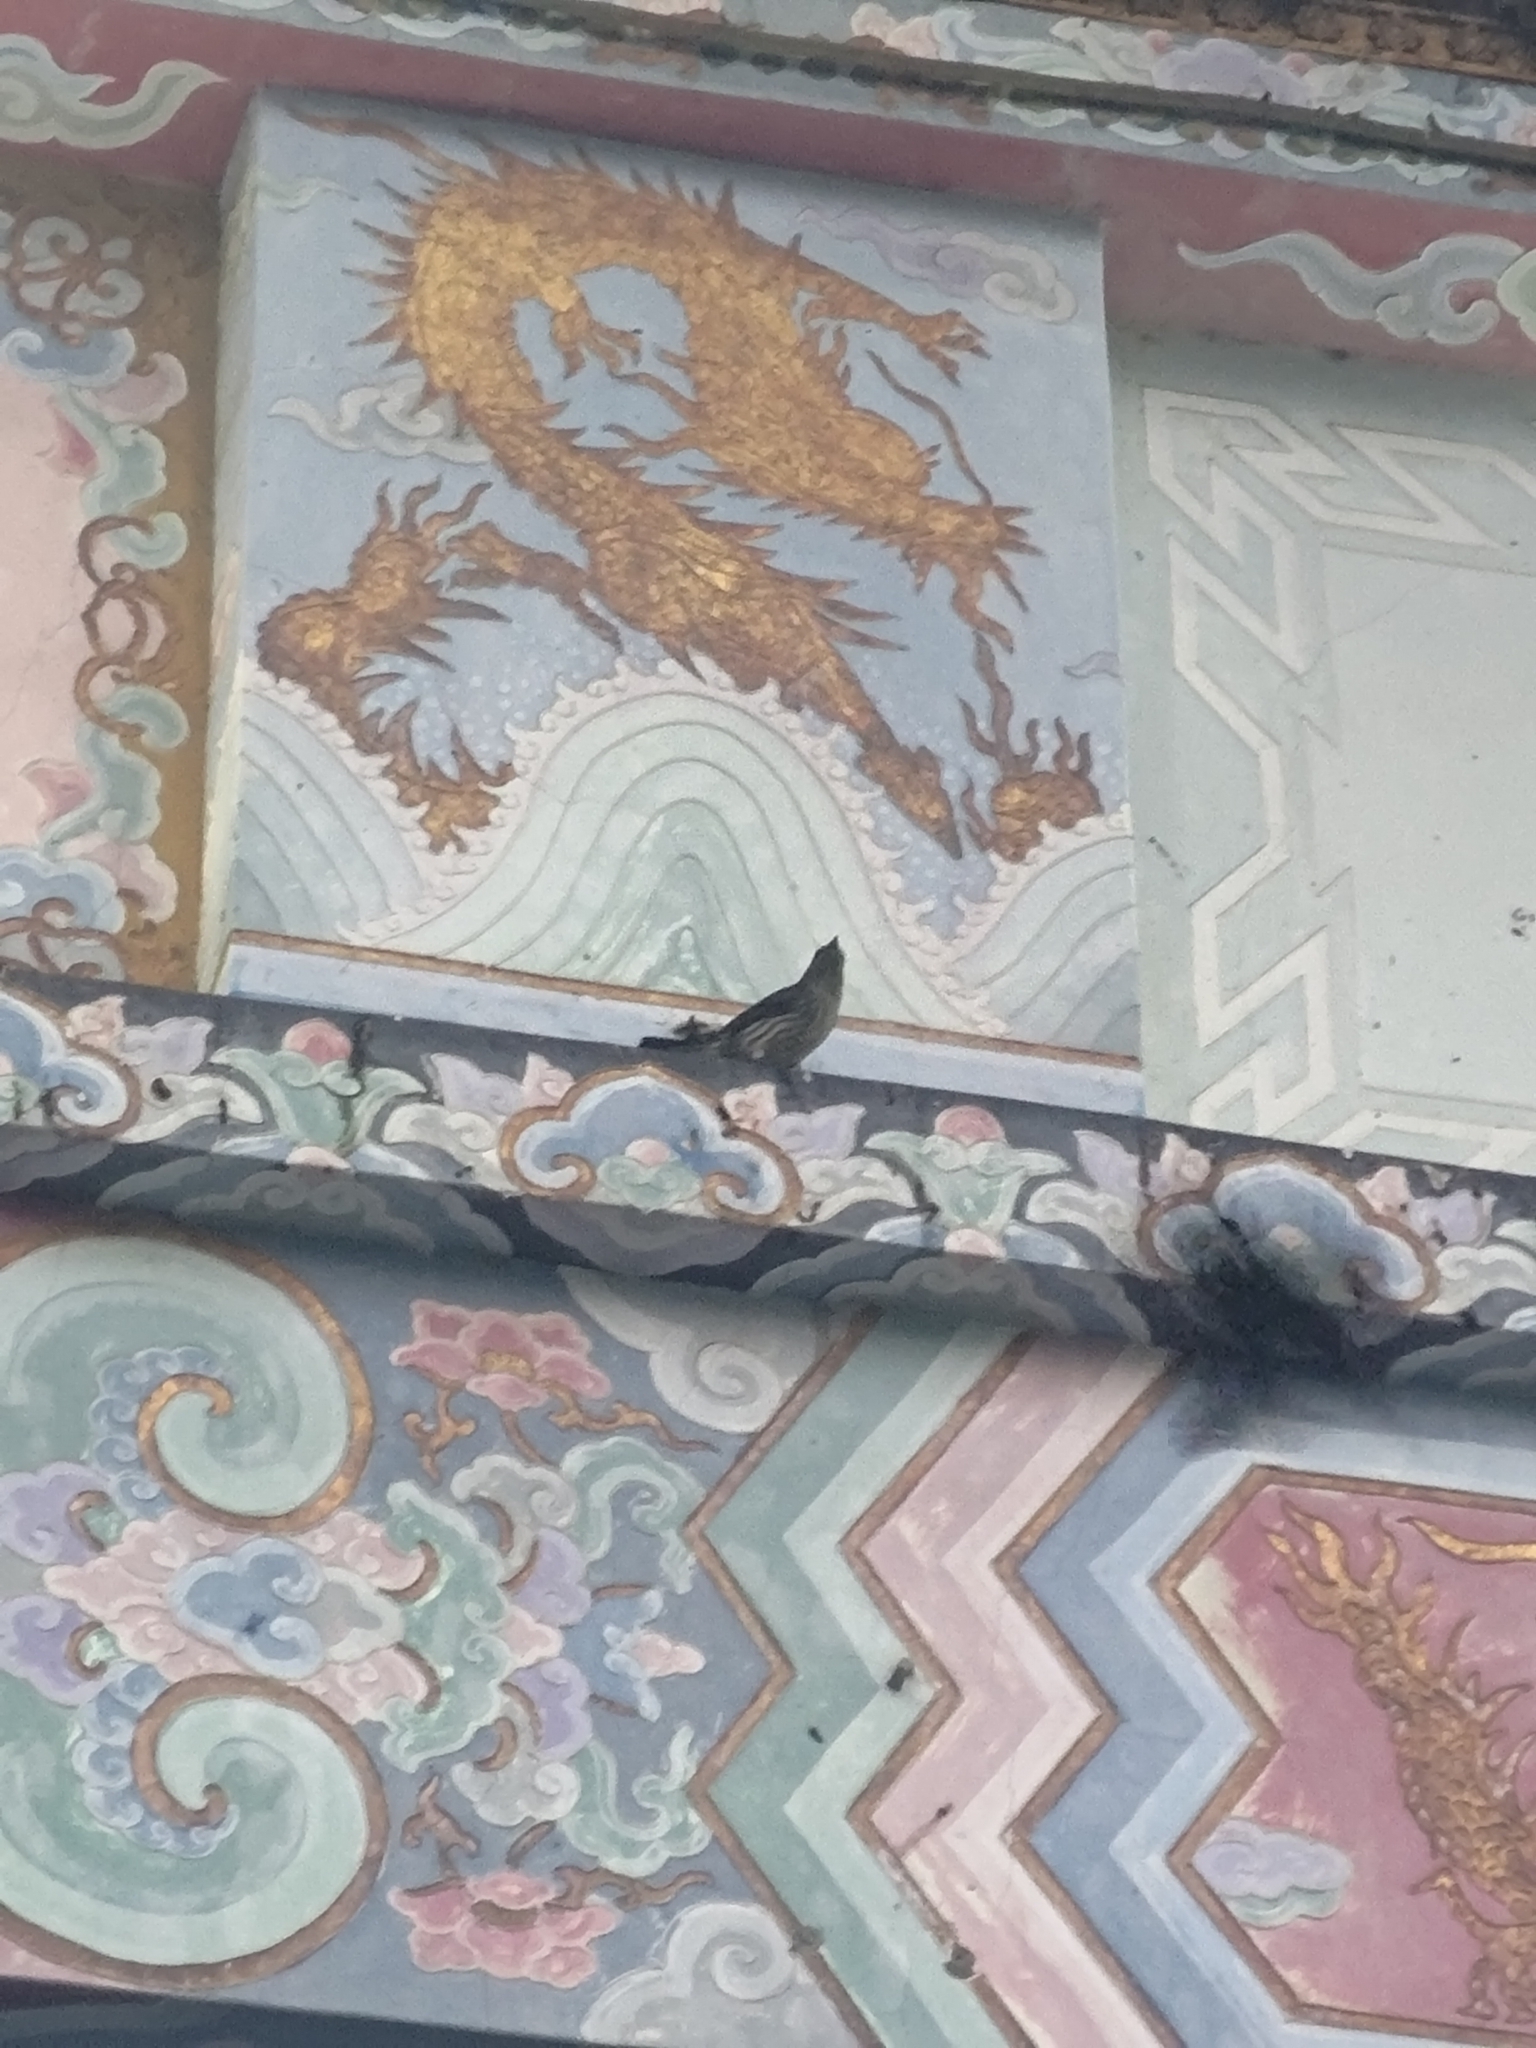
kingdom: Animalia
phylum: Chordata
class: Aves
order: Passeriformes
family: Sturnidae
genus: Aplonis
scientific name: Aplonis panayensis
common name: Asian glossy starling
